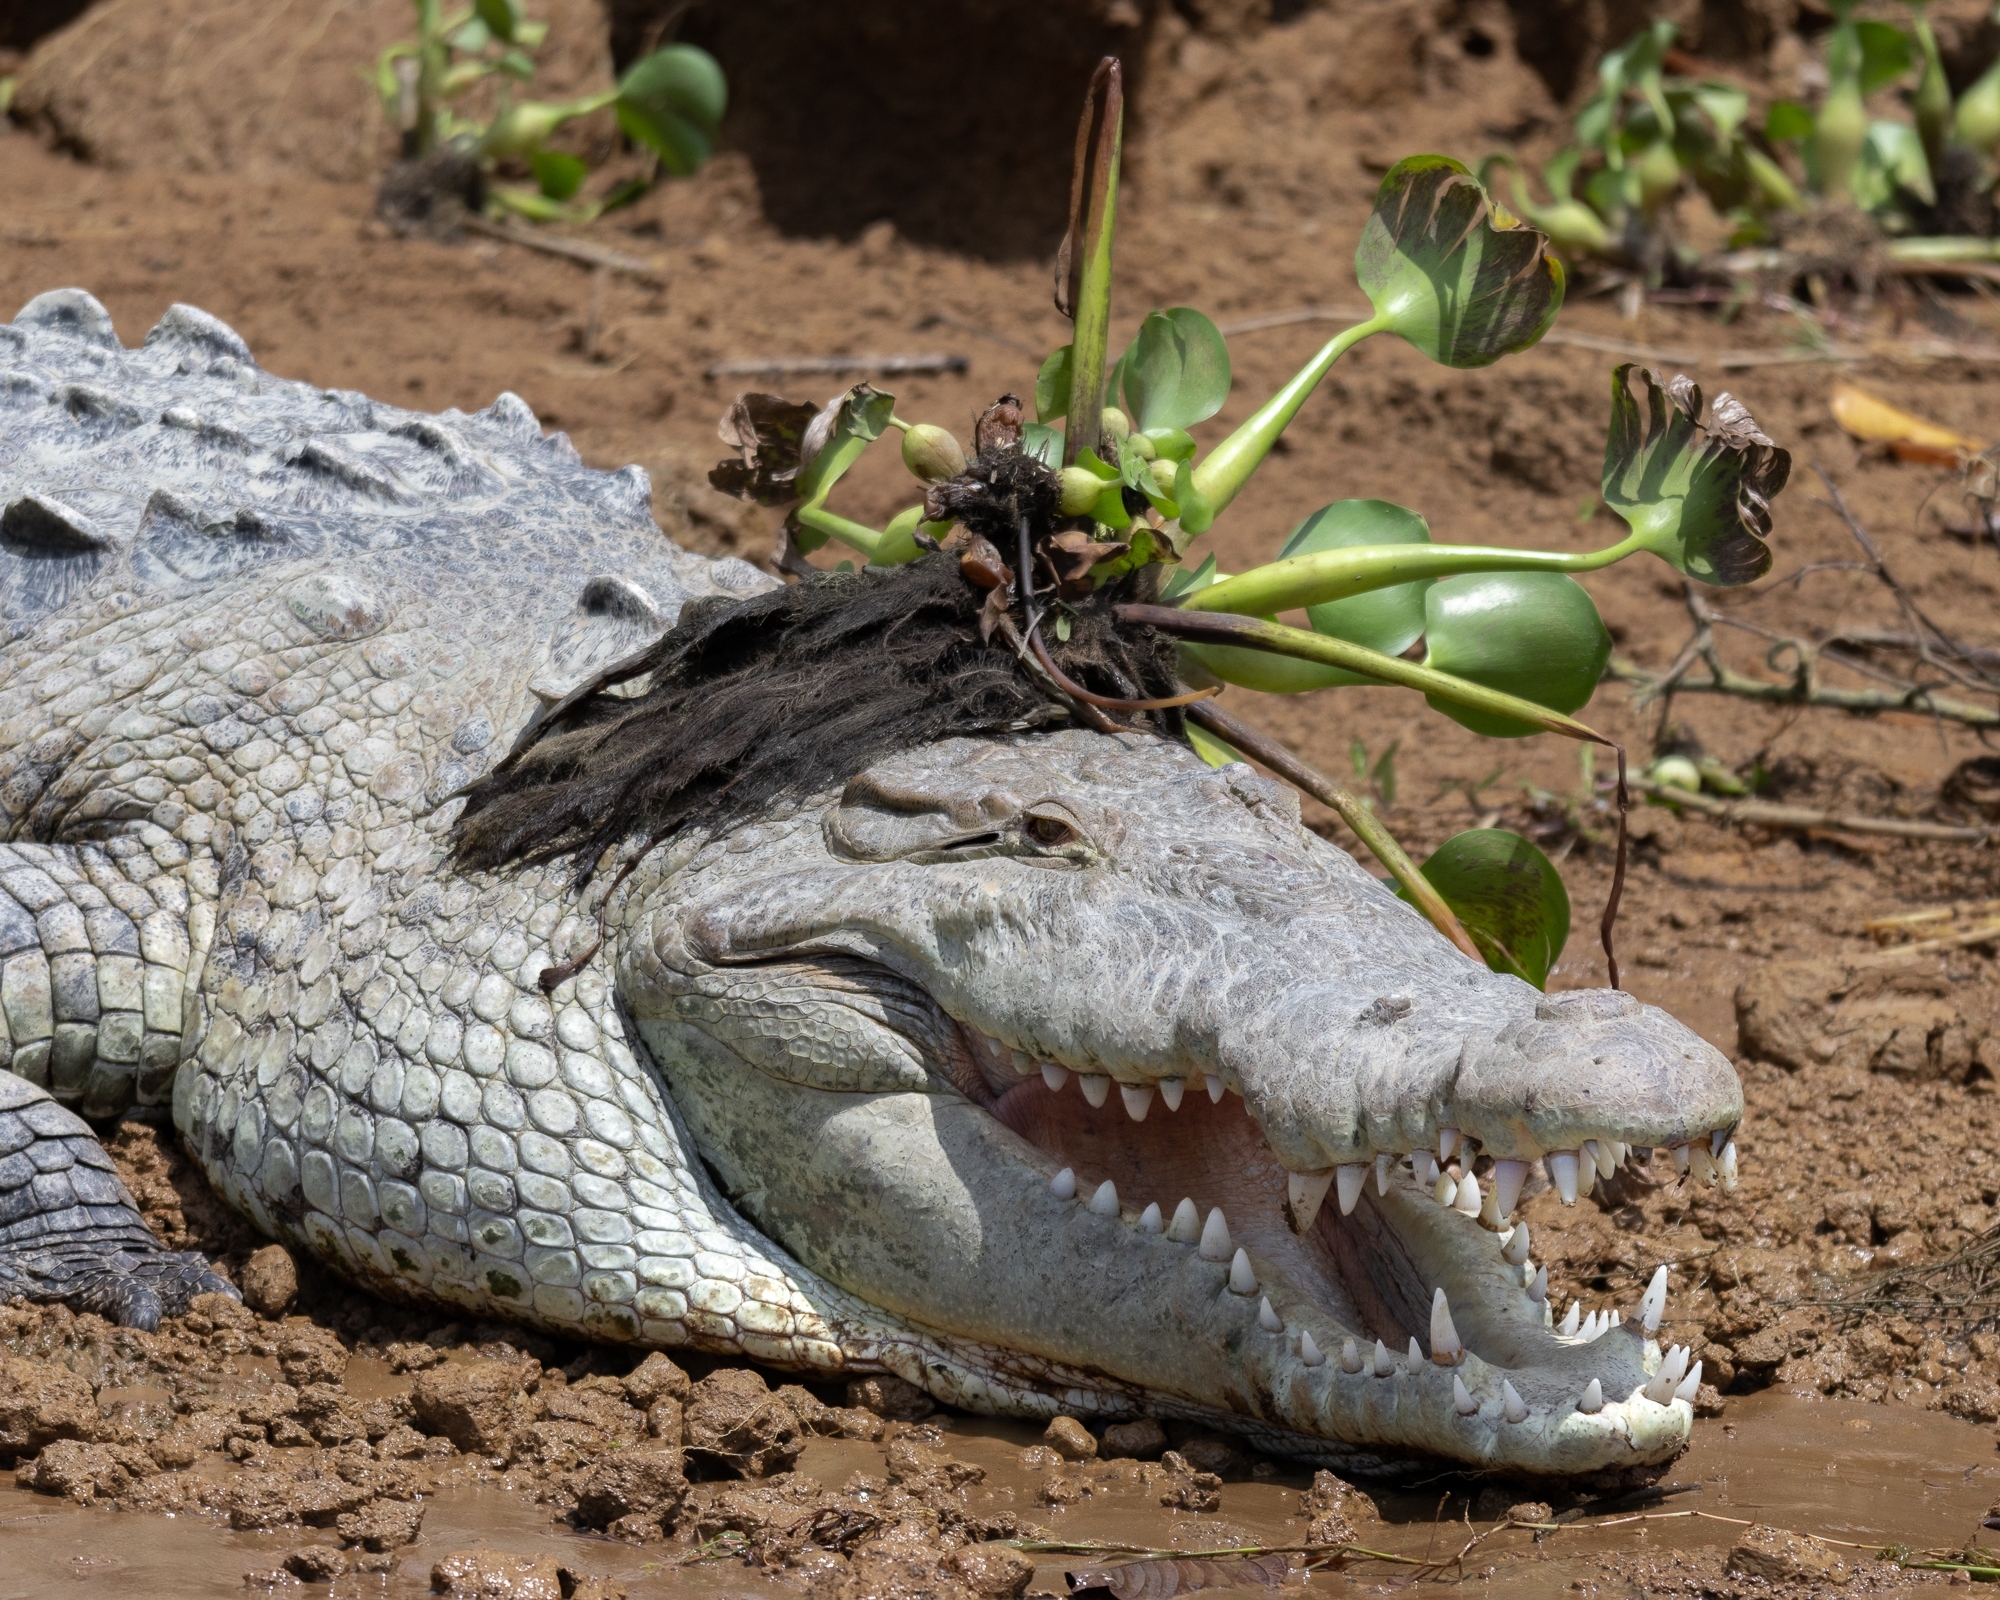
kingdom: Animalia
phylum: Chordata
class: Crocodylia
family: Crocodylidae
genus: Crocodylus
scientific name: Crocodylus acutus
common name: American crocodile
